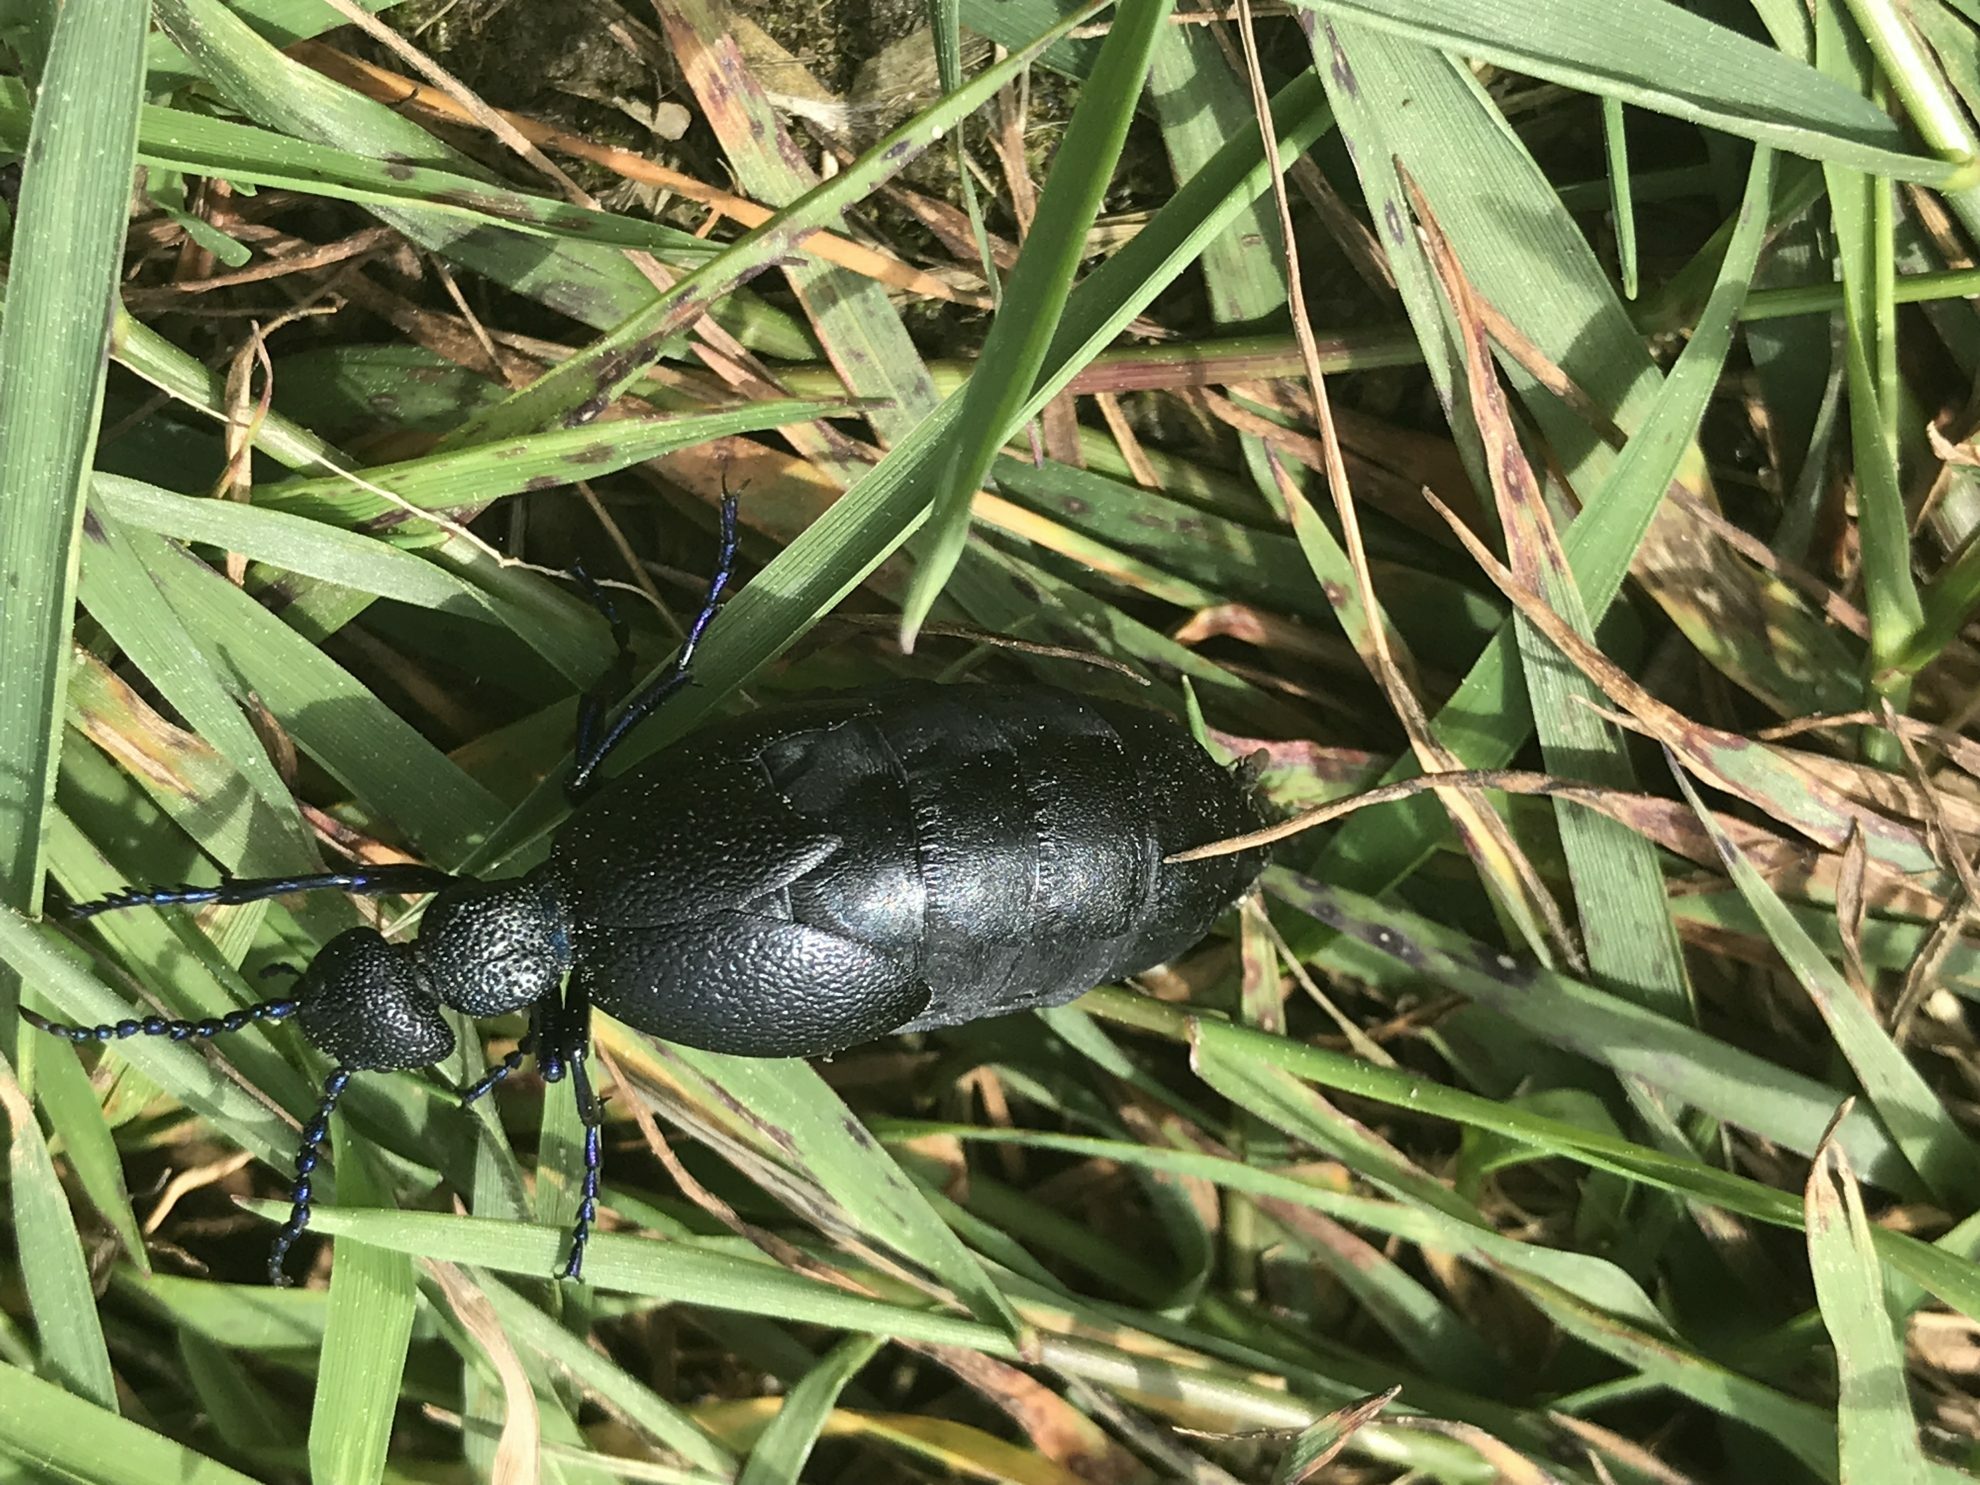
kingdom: Animalia
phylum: Arthropoda
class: Insecta
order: Coleoptera
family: Meloidae
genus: Meloe
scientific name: Meloe proscarabaeus
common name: Black oil-beetle
